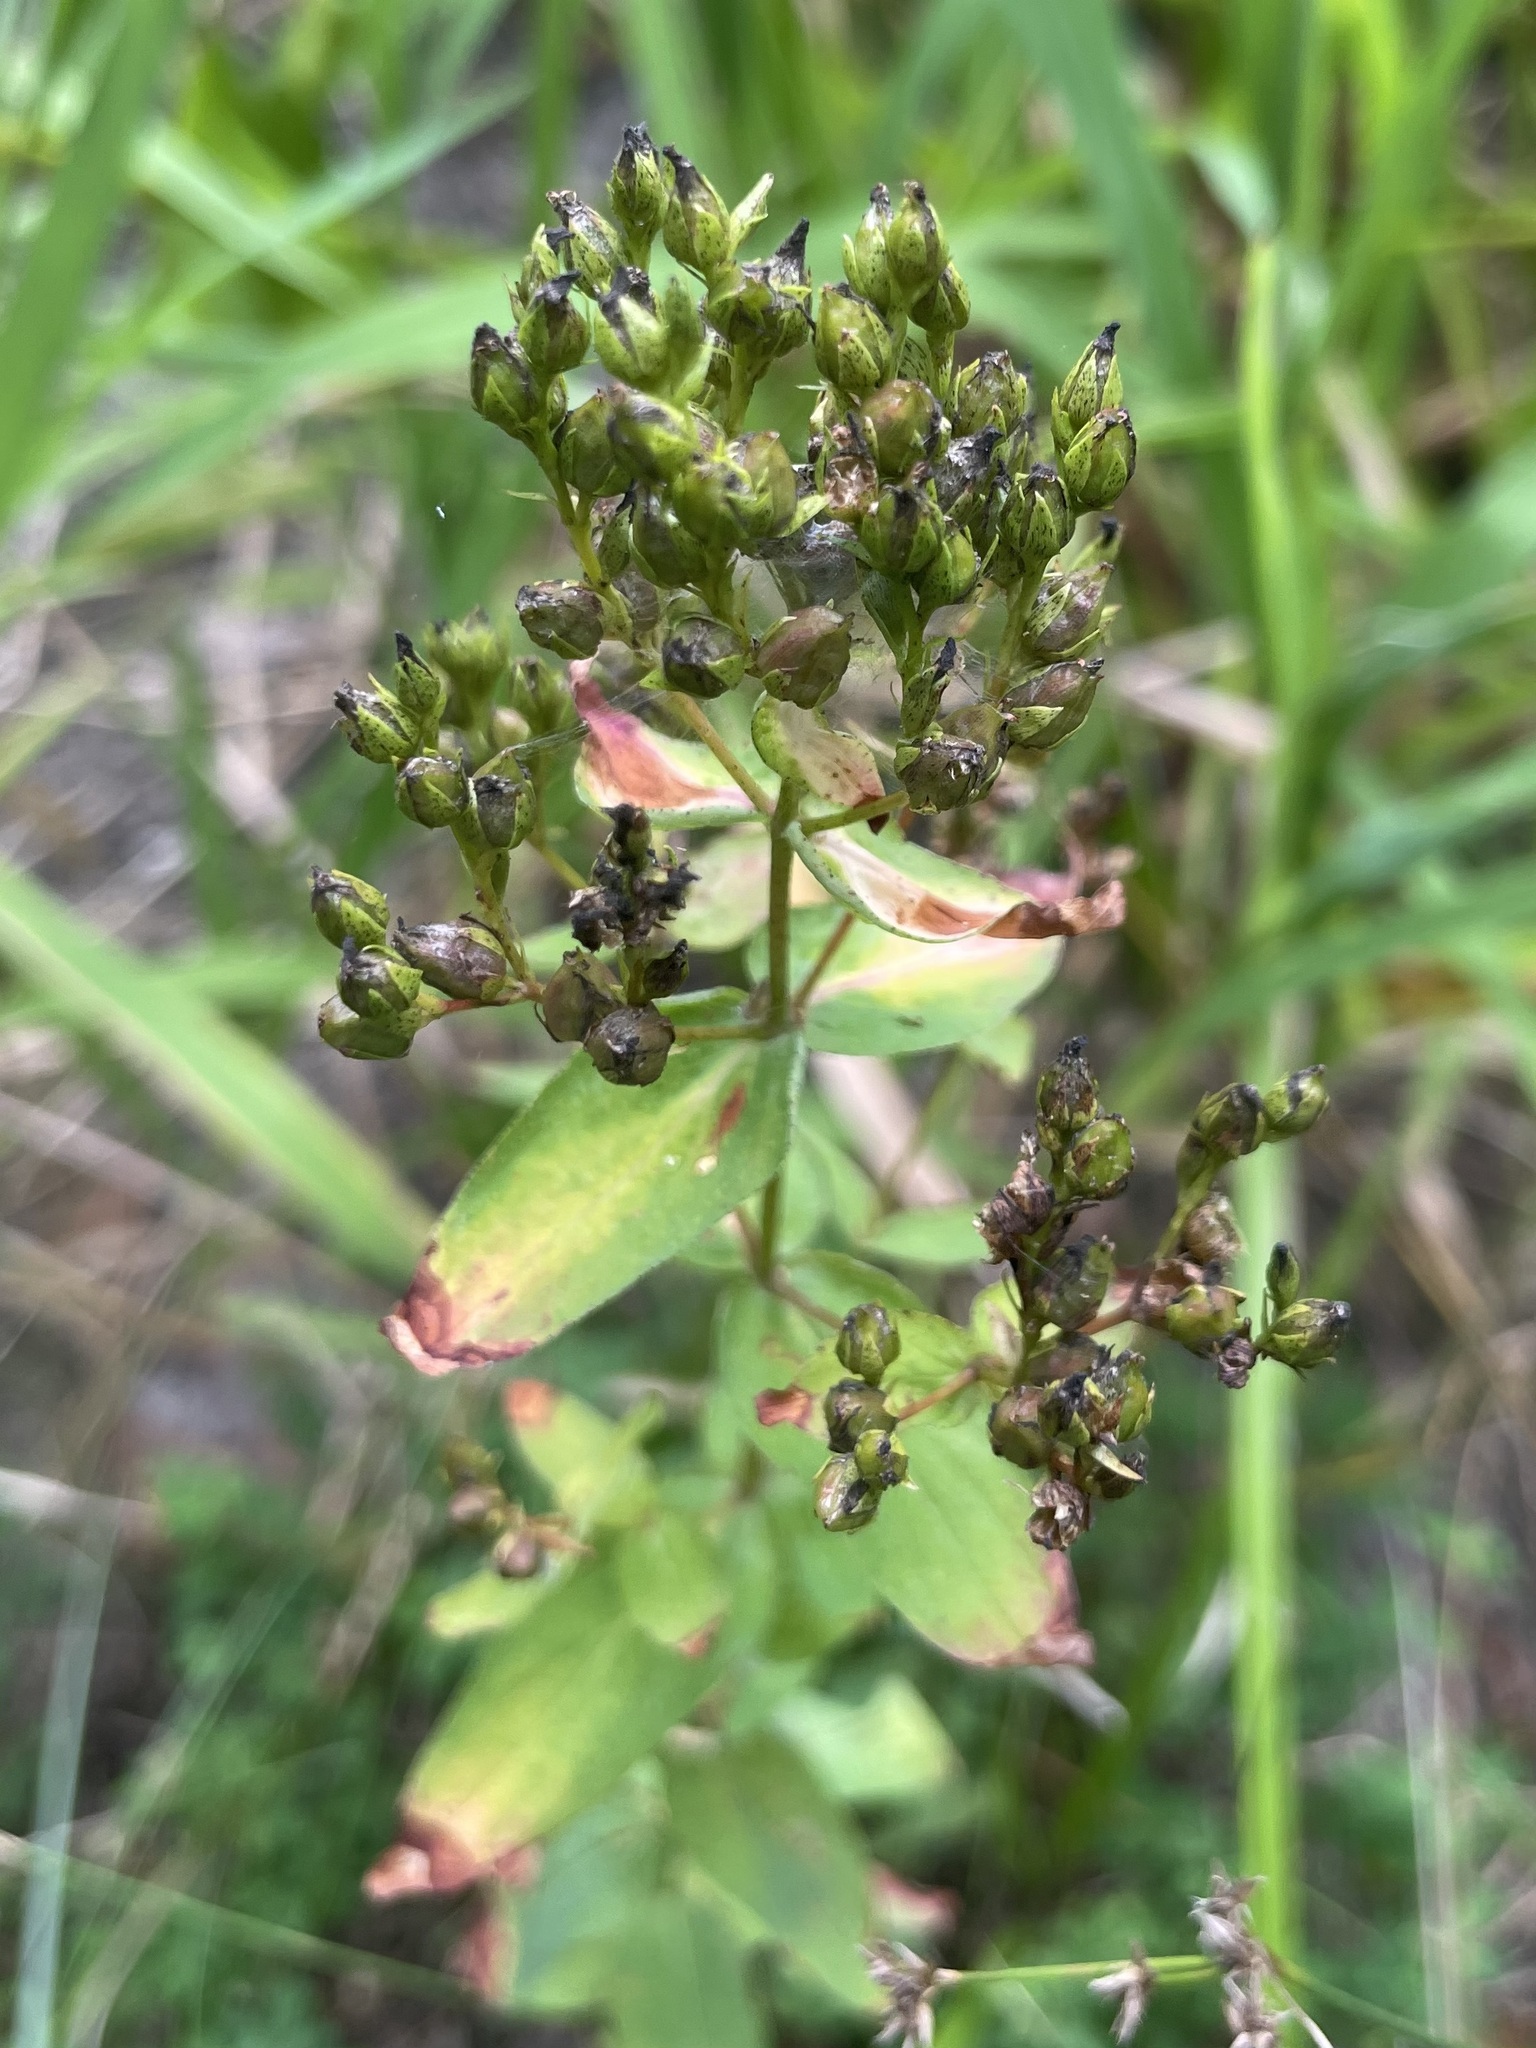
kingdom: Plantae
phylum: Tracheophyta
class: Magnoliopsida
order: Malpighiales
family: Hypericaceae
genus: Hypericum
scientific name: Hypericum punctatum
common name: Spotted st. john's-wort
